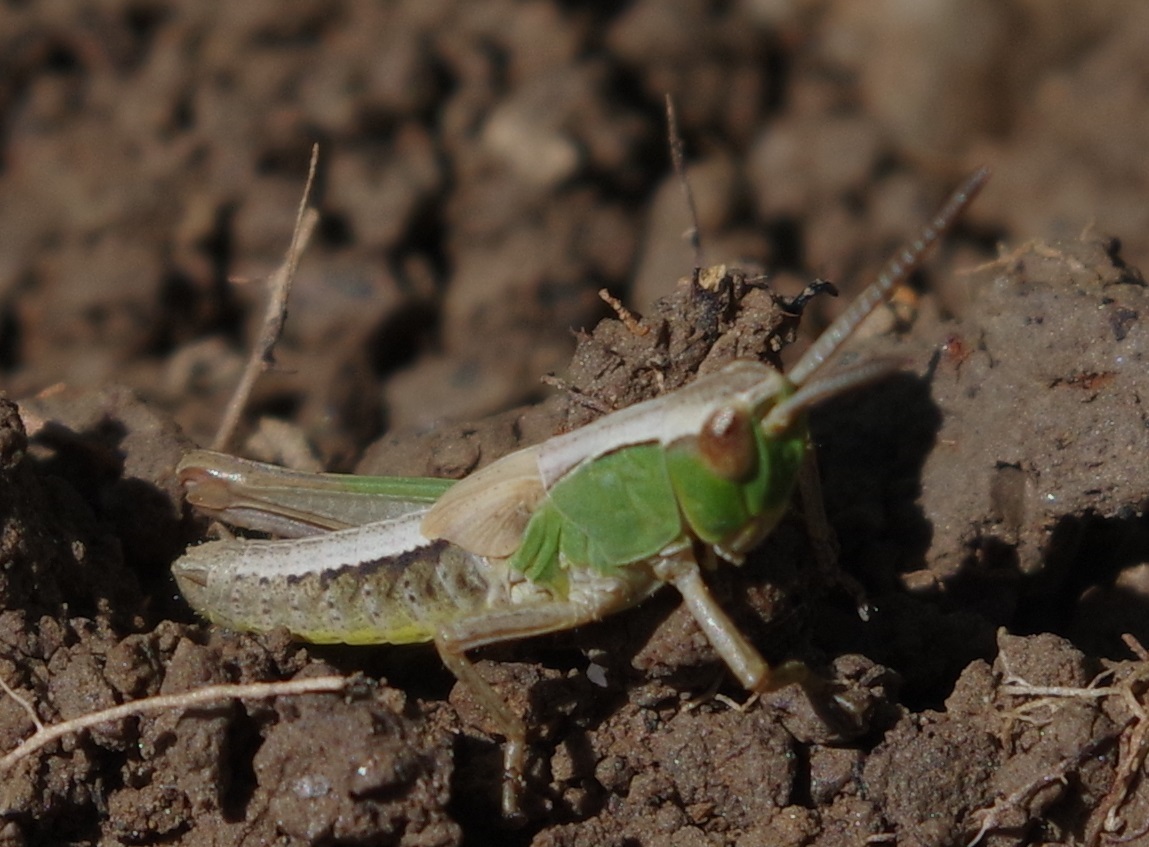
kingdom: Animalia
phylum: Arthropoda
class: Insecta
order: Orthoptera
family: Acrididae
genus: Pseudochorthippus
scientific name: Pseudochorthippus parallelus
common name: Meadow grasshopper
